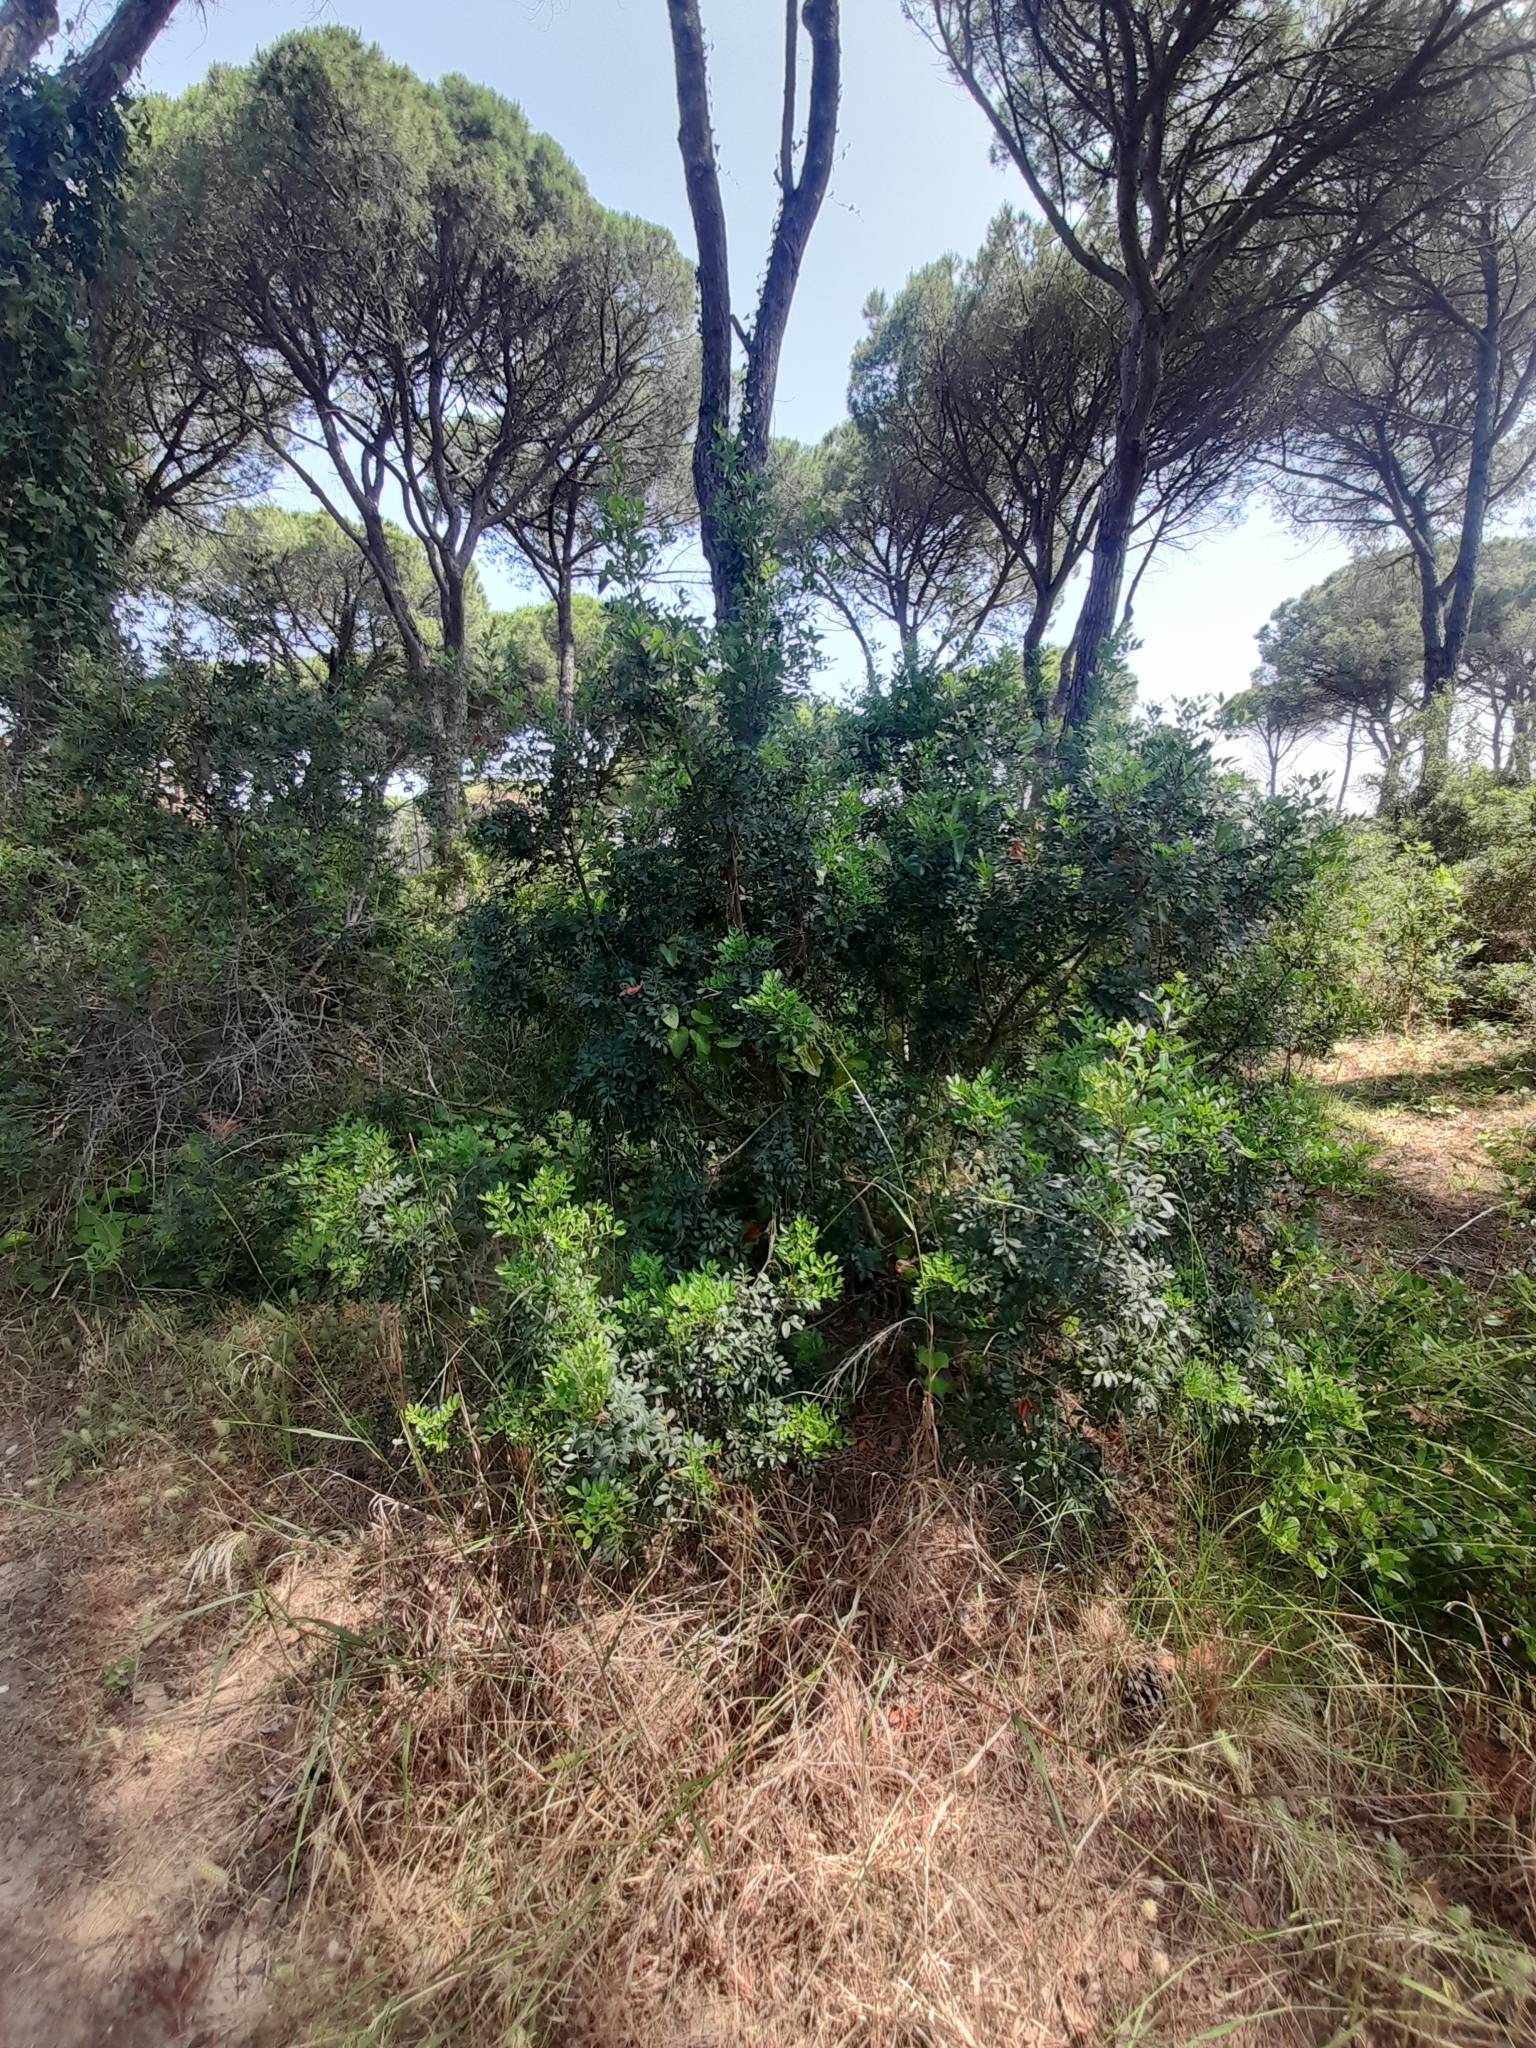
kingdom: Plantae
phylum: Tracheophyta
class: Magnoliopsida
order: Sapindales
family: Anacardiaceae
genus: Pistacia
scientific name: Pistacia lentiscus
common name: Lentisk
